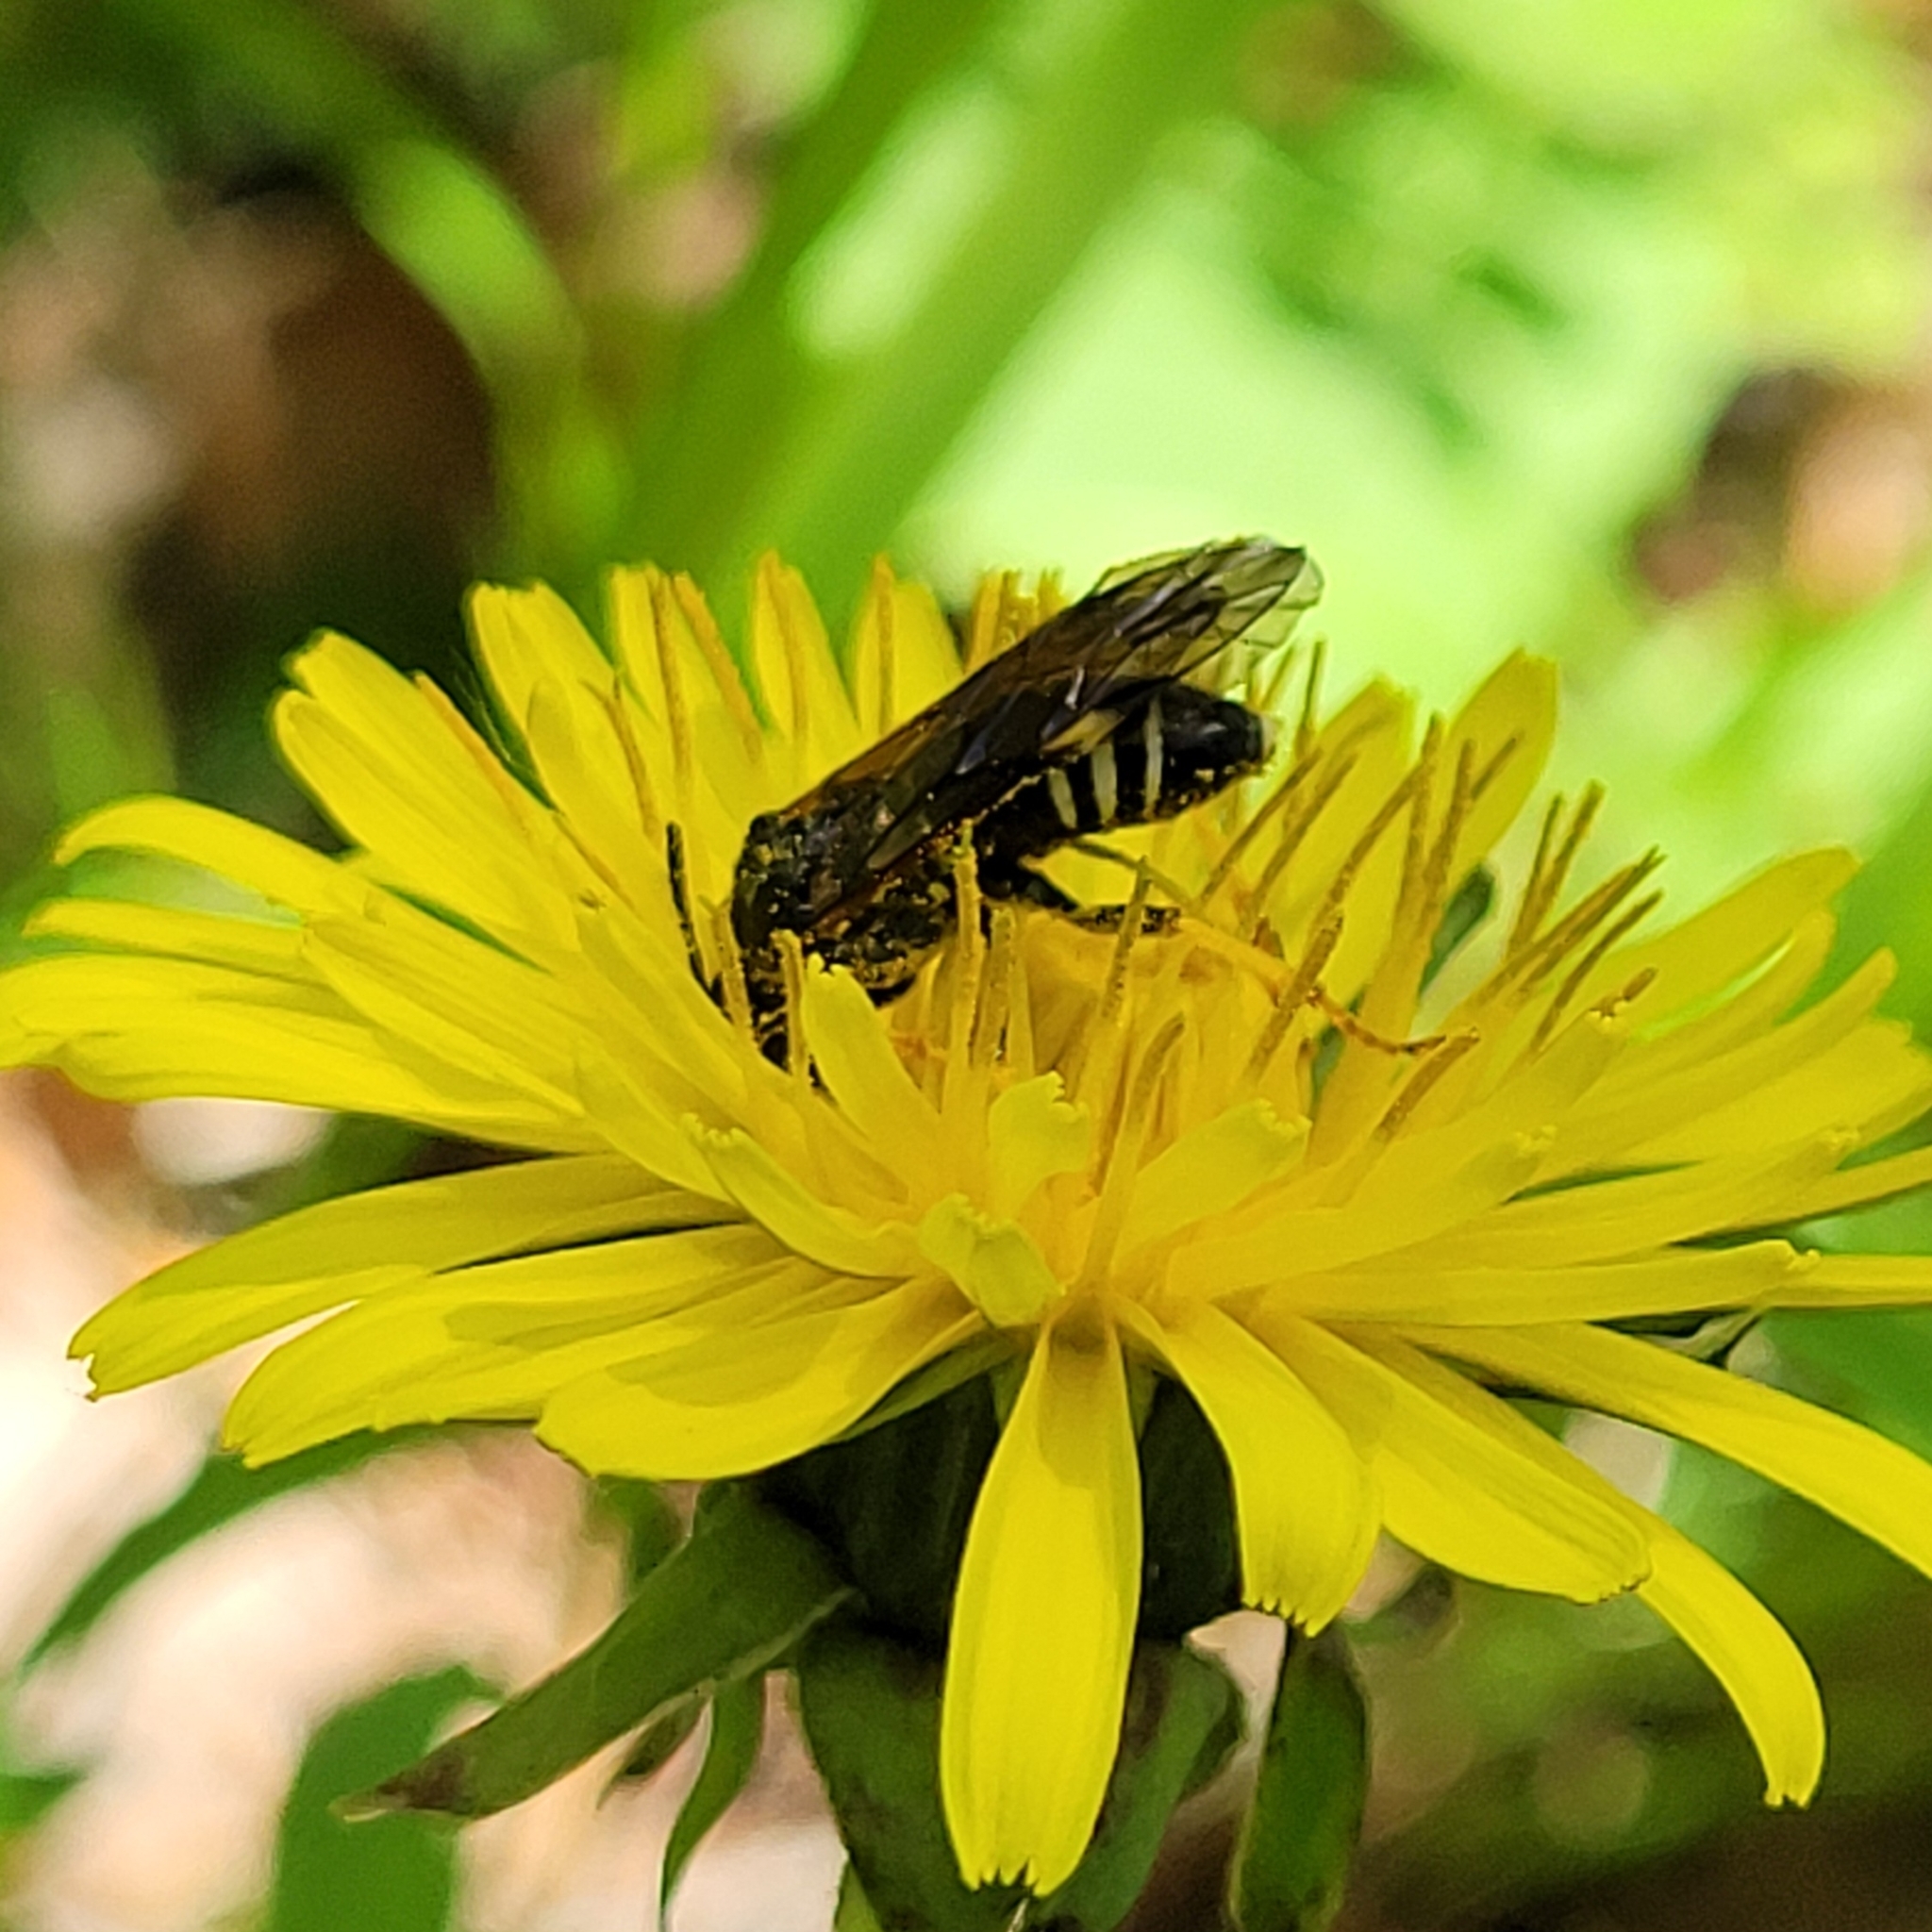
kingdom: Animalia
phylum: Arthropoda
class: Insecta
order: Hymenoptera
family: Tenthredinidae
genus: Tenthredo
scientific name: Tenthredo koehleri
